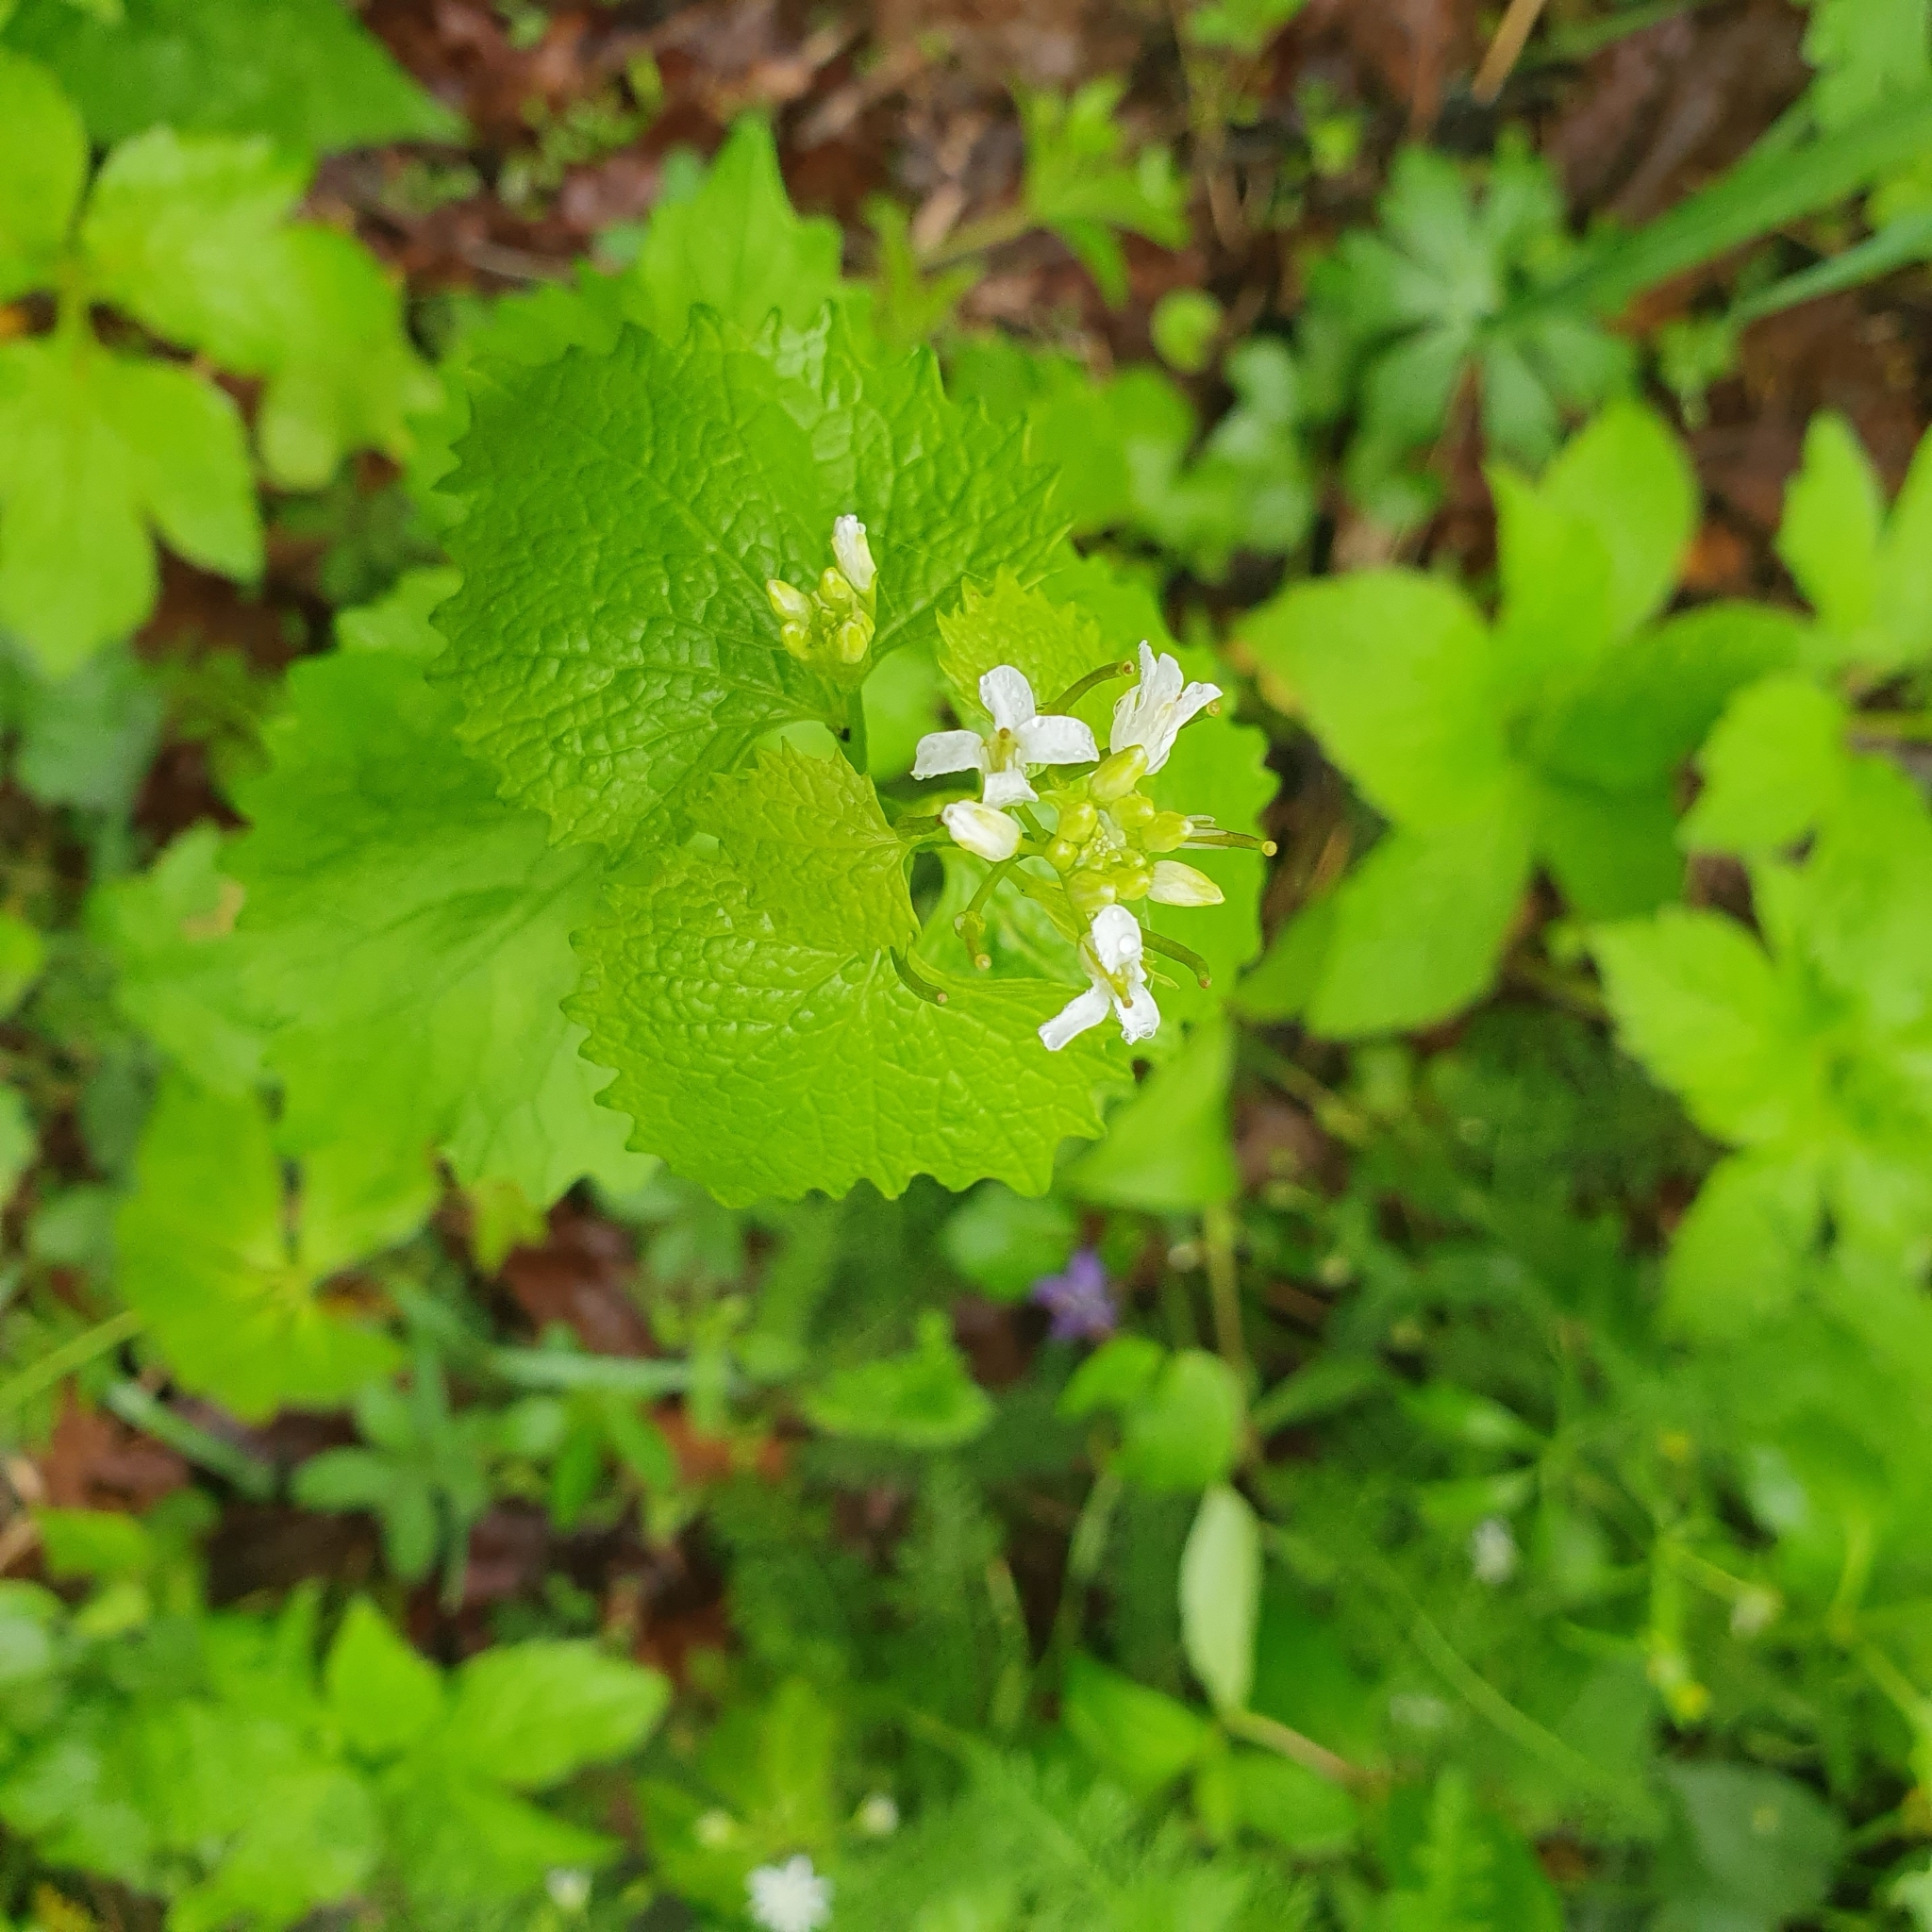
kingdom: Plantae
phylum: Tracheophyta
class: Magnoliopsida
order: Brassicales
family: Brassicaceae
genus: Alliaria
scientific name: Alliaria petiolata
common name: Garlic mustard
